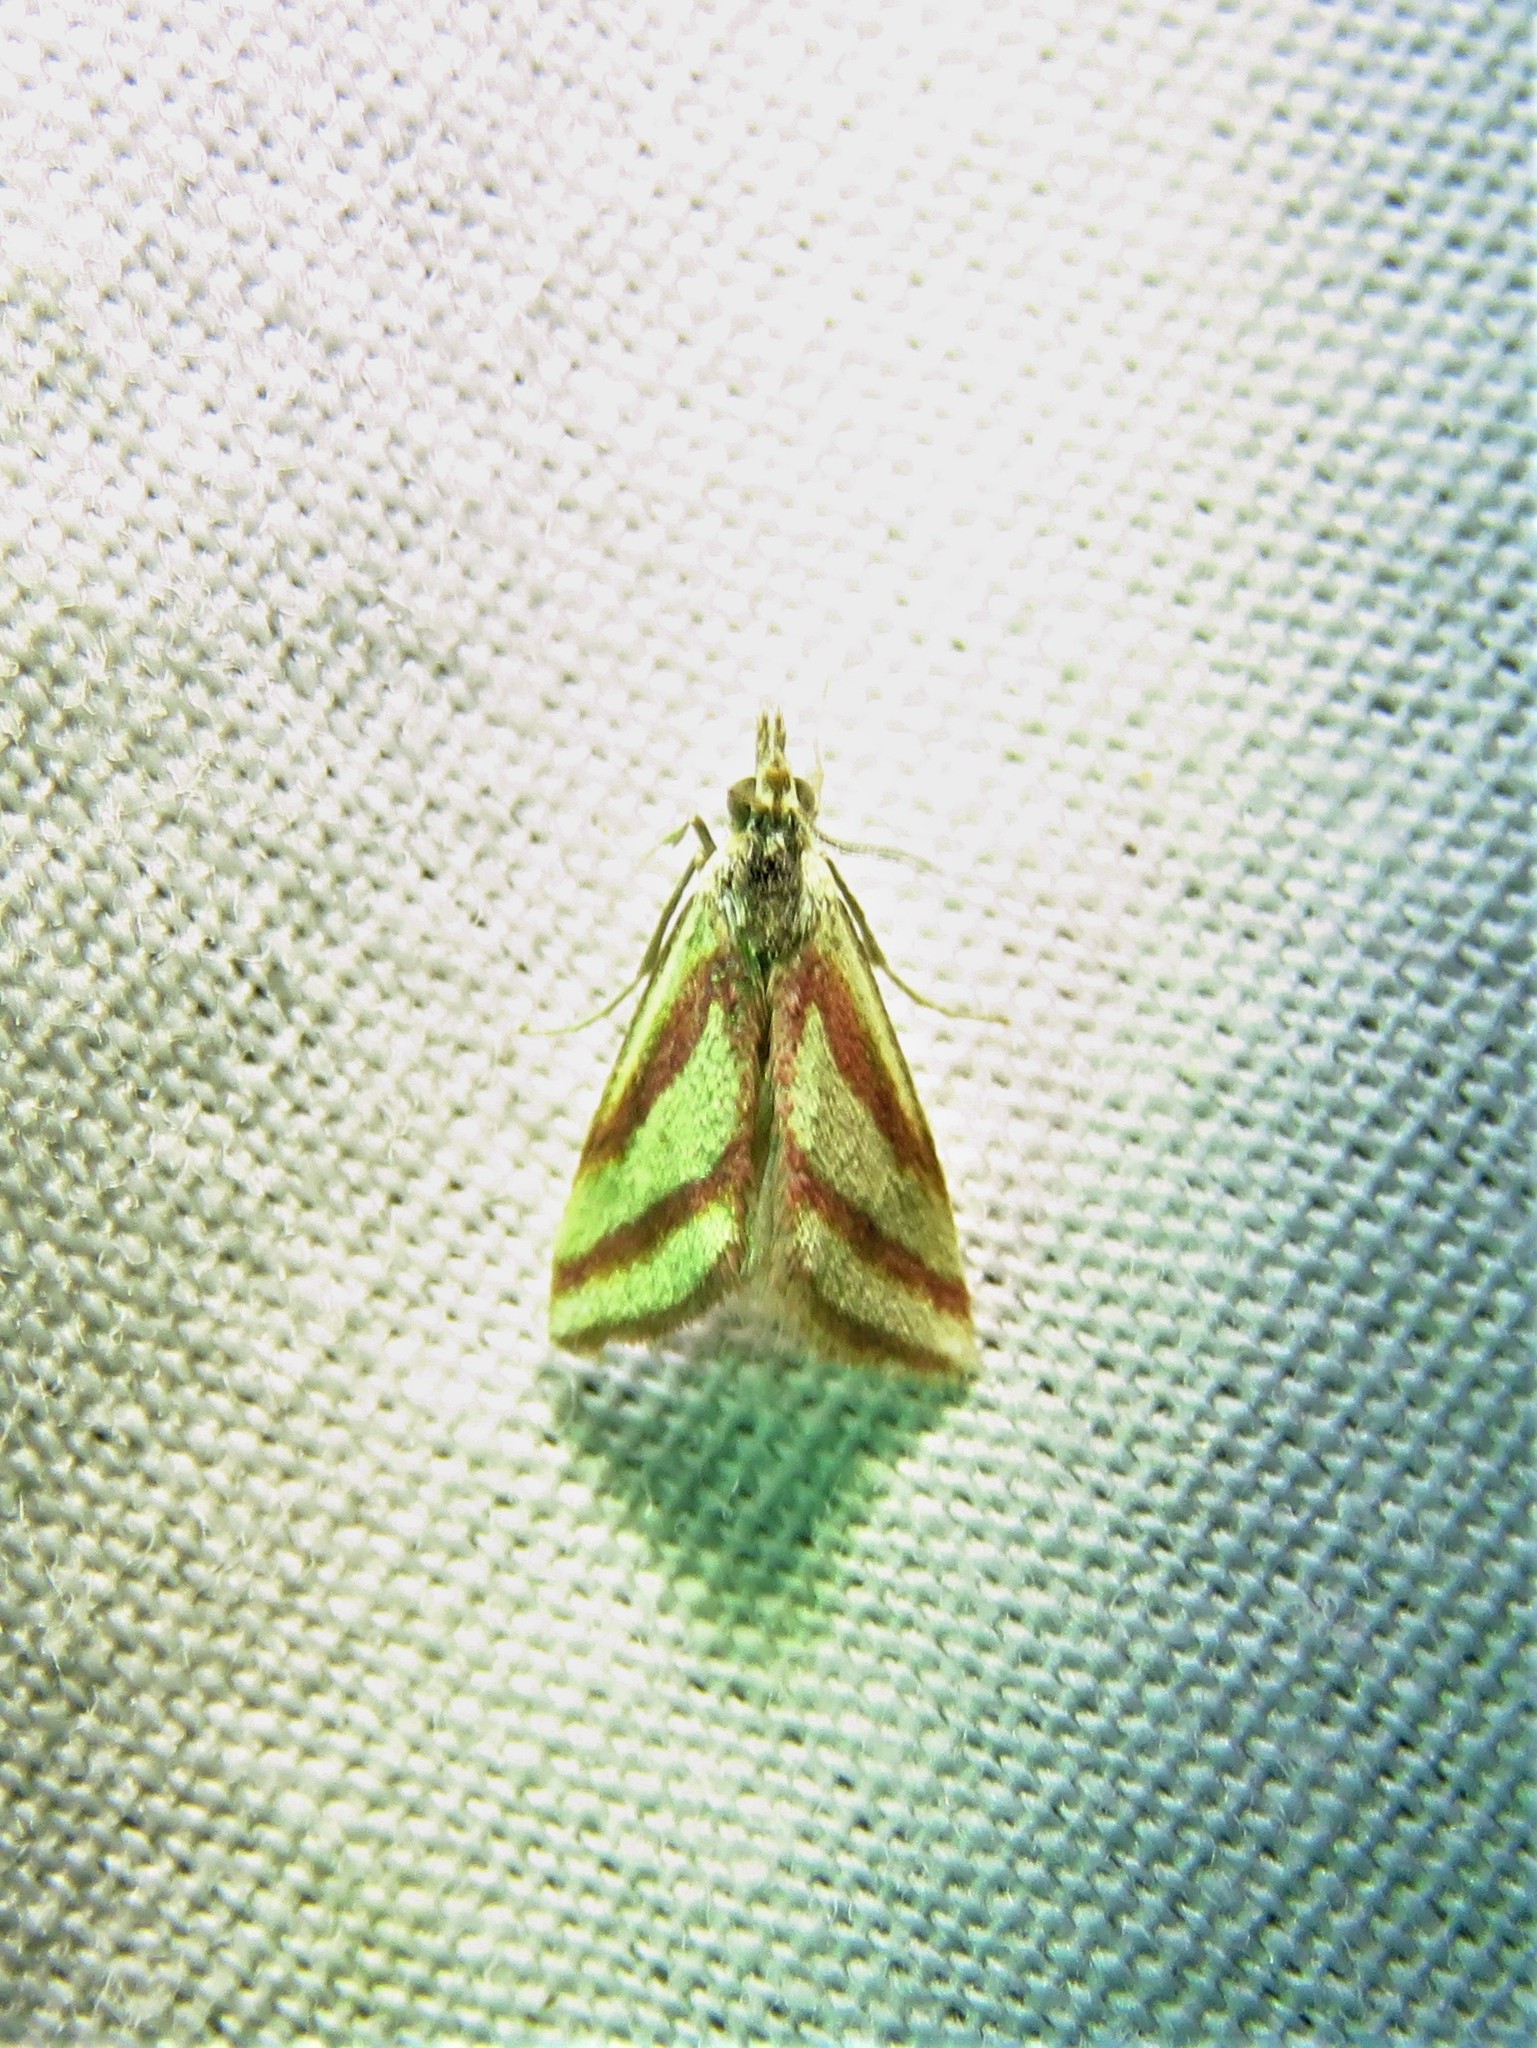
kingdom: Animalia
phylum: Arthropoda
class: Insecta
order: Lepidoptera
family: Crambidae
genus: Microtheoris
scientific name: Microtheoris vibicalis
